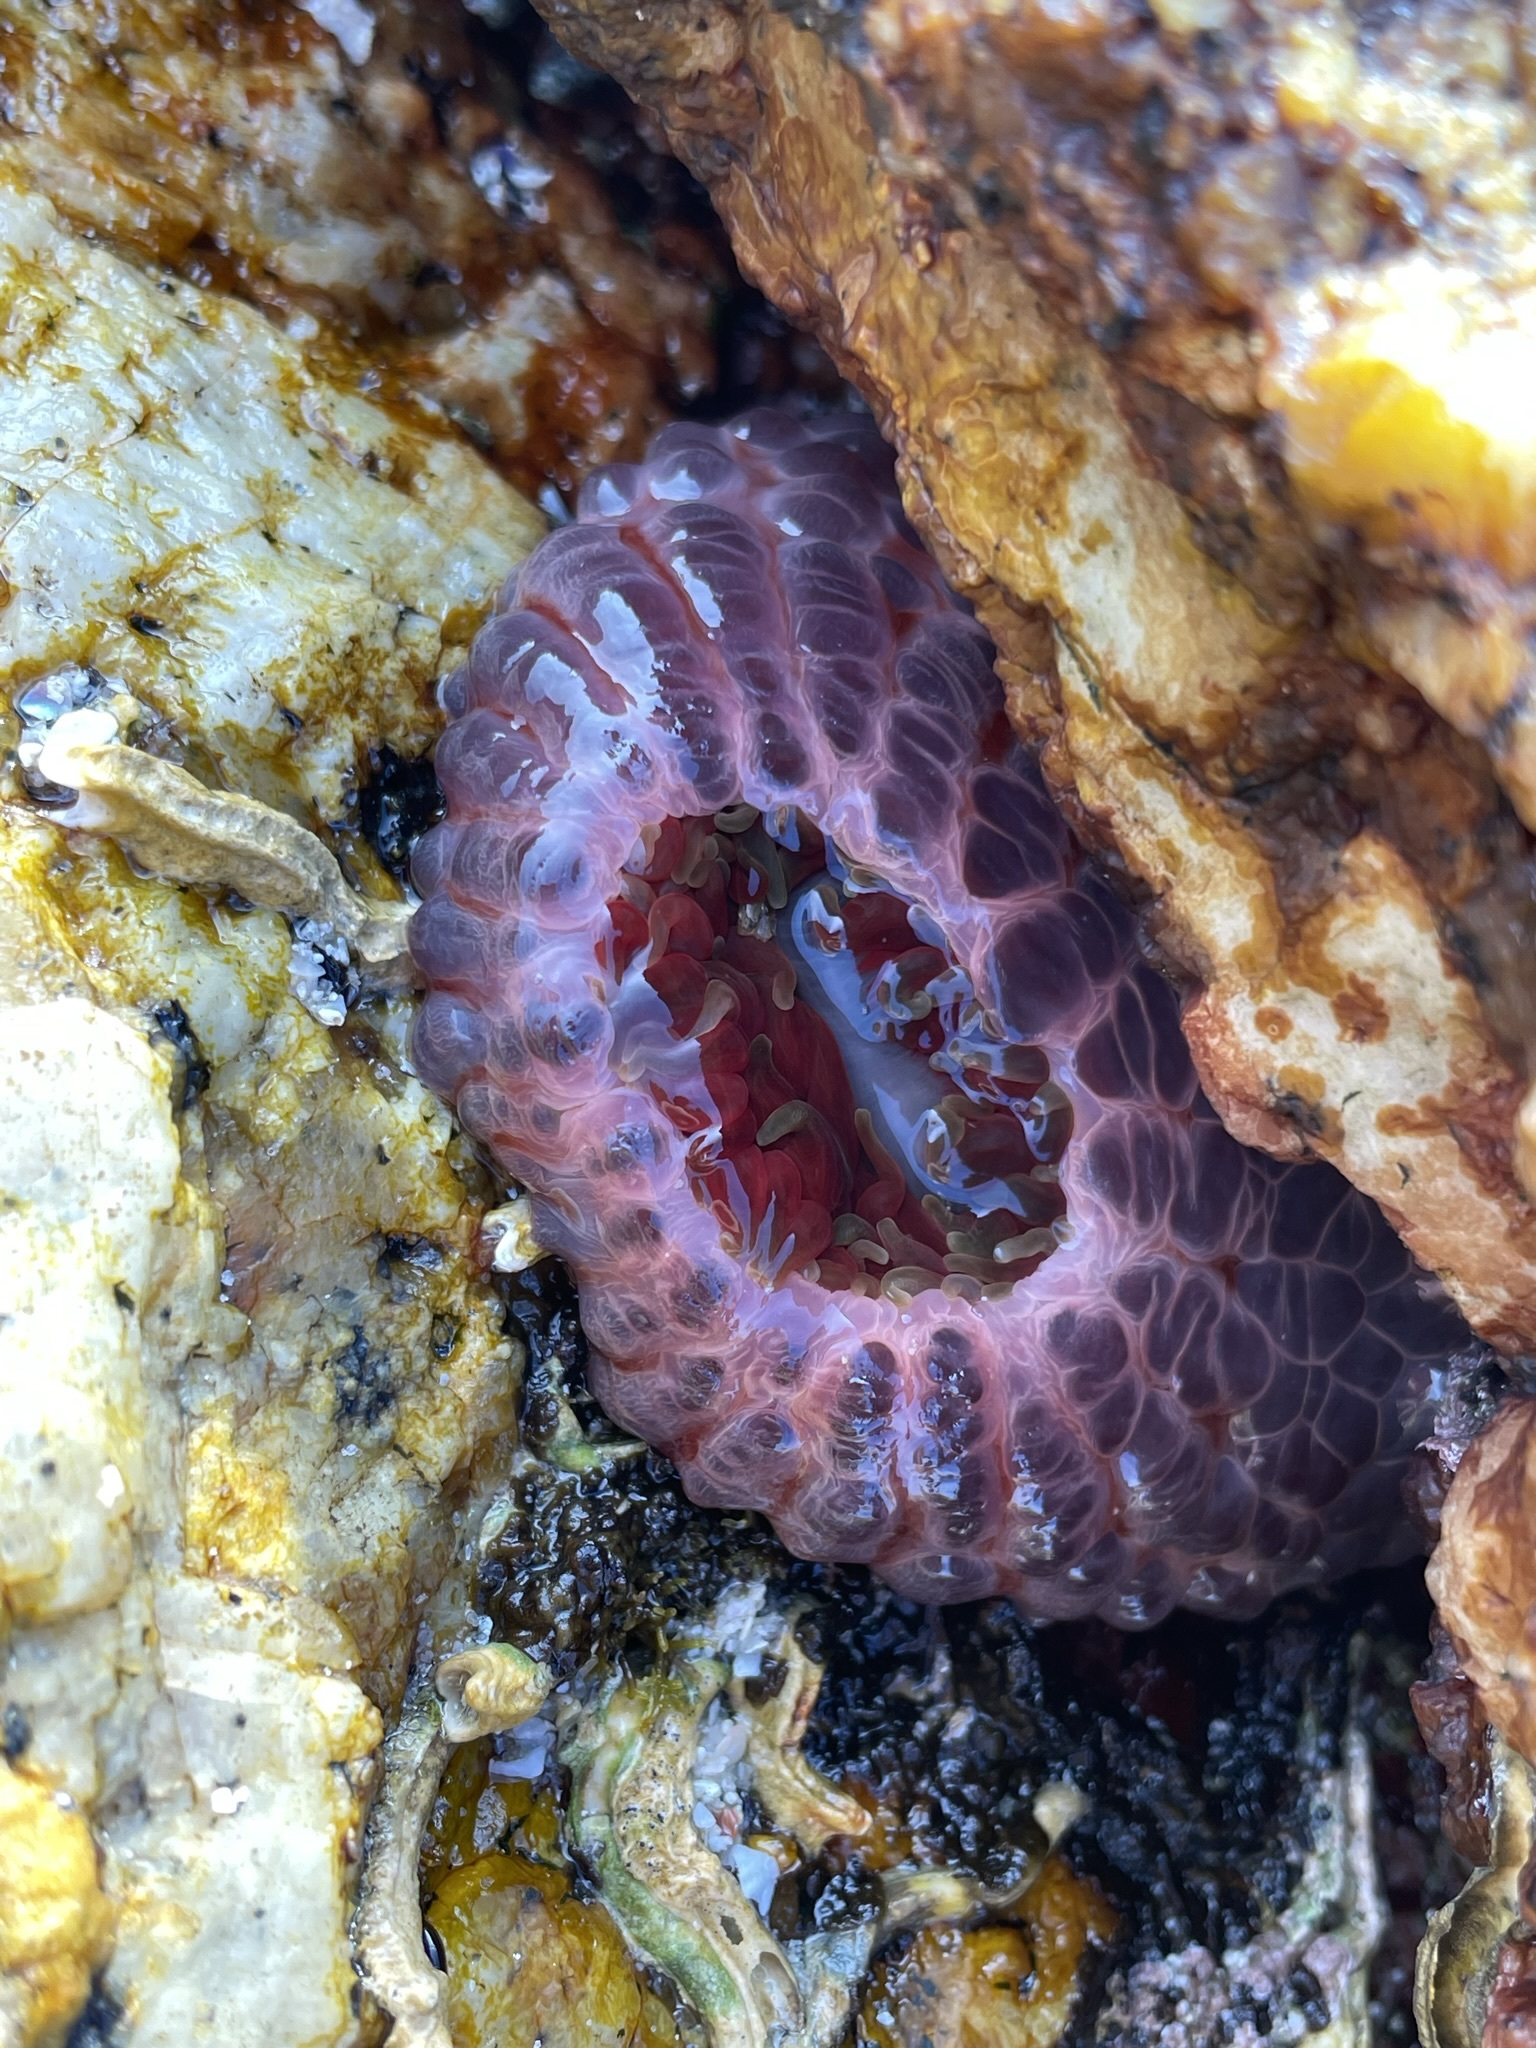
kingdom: Animalia
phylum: Cnidaria
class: Anthozoa
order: Actiniaria
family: Actiniidae
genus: Phlyctenanthus
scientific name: Phlyctenanthus australis
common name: Southern anemone
